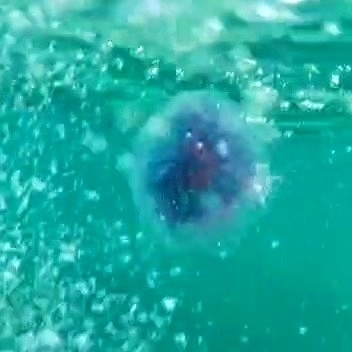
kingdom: Animalia
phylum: Cnidaria
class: Scyphozoa
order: Semaeostomeae
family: Cyaneidae
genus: Cyanea
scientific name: Cyanea lamarckii
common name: Blue jellyfish
